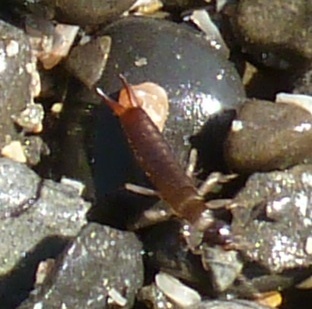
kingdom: Animalia
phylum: Arthropoda
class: Insecta
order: Dermaptera
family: Anisolabididae
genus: Anisolabis
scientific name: Anisolabis maritima
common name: Maritime earwig
